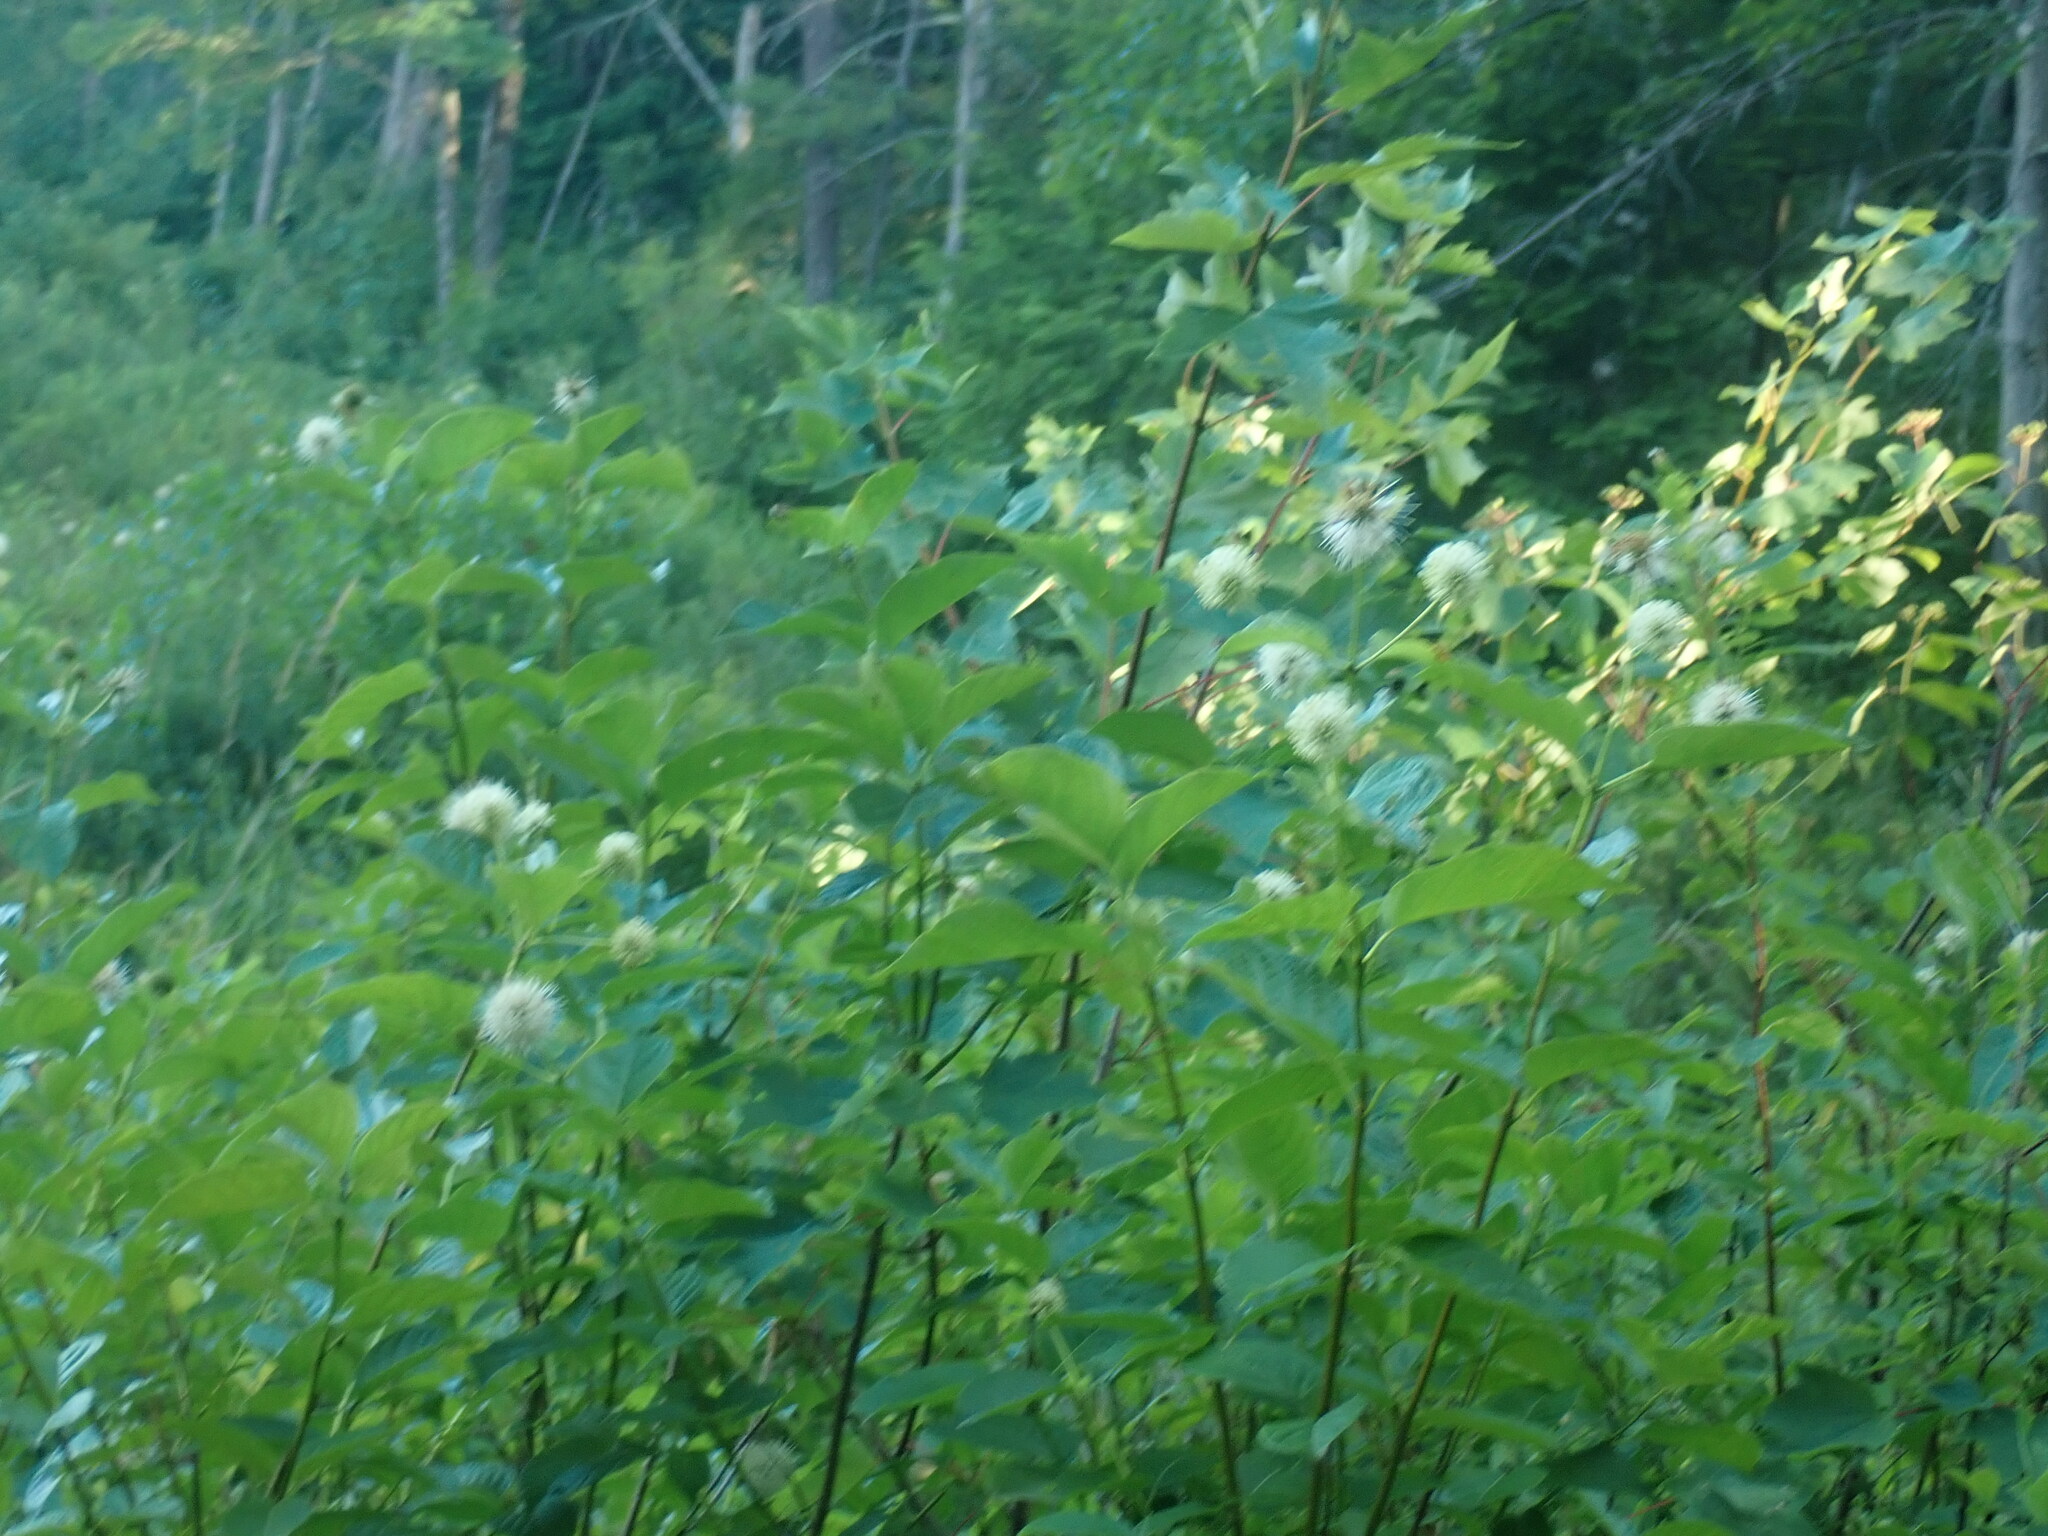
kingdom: Plantae
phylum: Tracheophyta
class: Magnoliopsida
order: Gentianales
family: Rubiaceae
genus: Cephalanthus
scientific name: Cephalanthus occidentalis
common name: Button-willow
